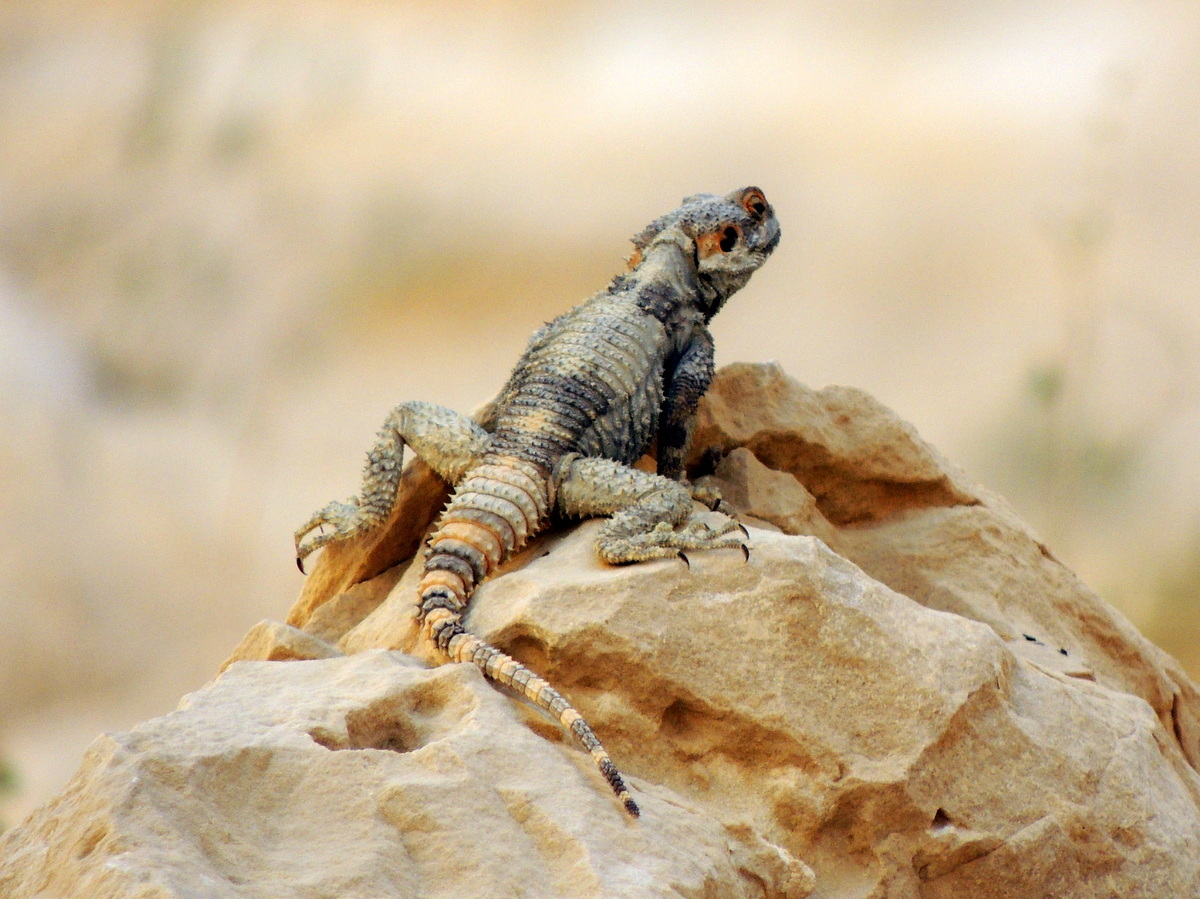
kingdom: Animalia
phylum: Chordata
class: Squamata
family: Agamidae
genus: Laudakia
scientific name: Laudakia vulgaris
